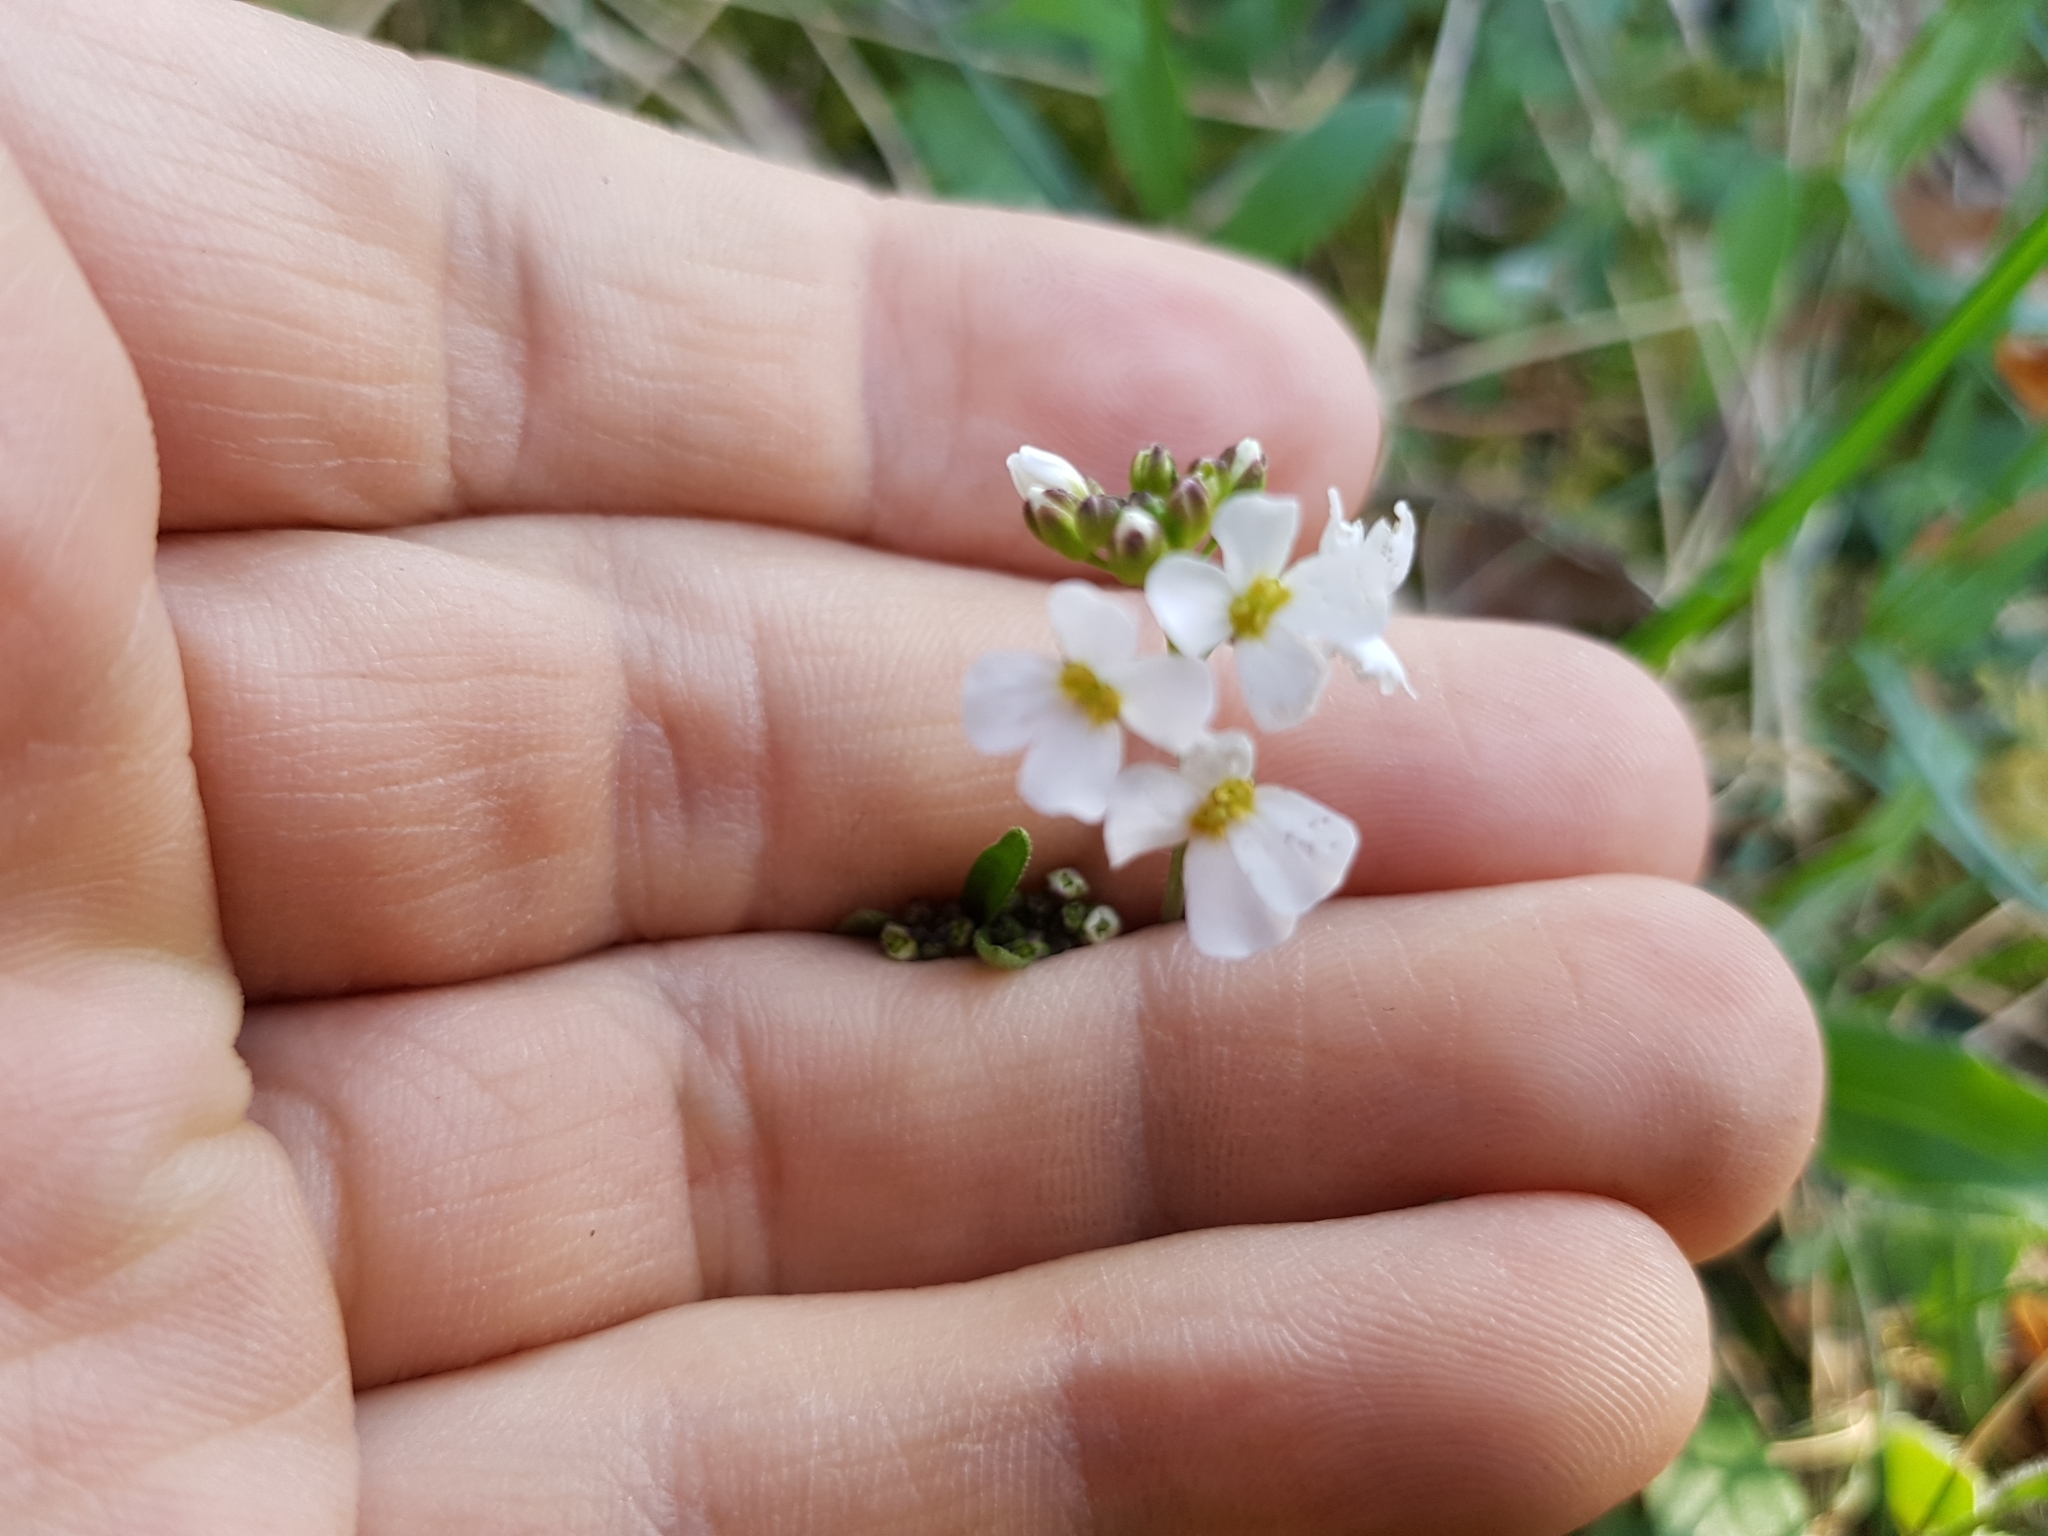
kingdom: Plantae
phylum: Tracheophyta
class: Magnoliopsida
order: Brassicales
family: Brassicaceae
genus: Arabidopsis
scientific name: Arabidopsis arenosa
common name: Sand rock-cress
